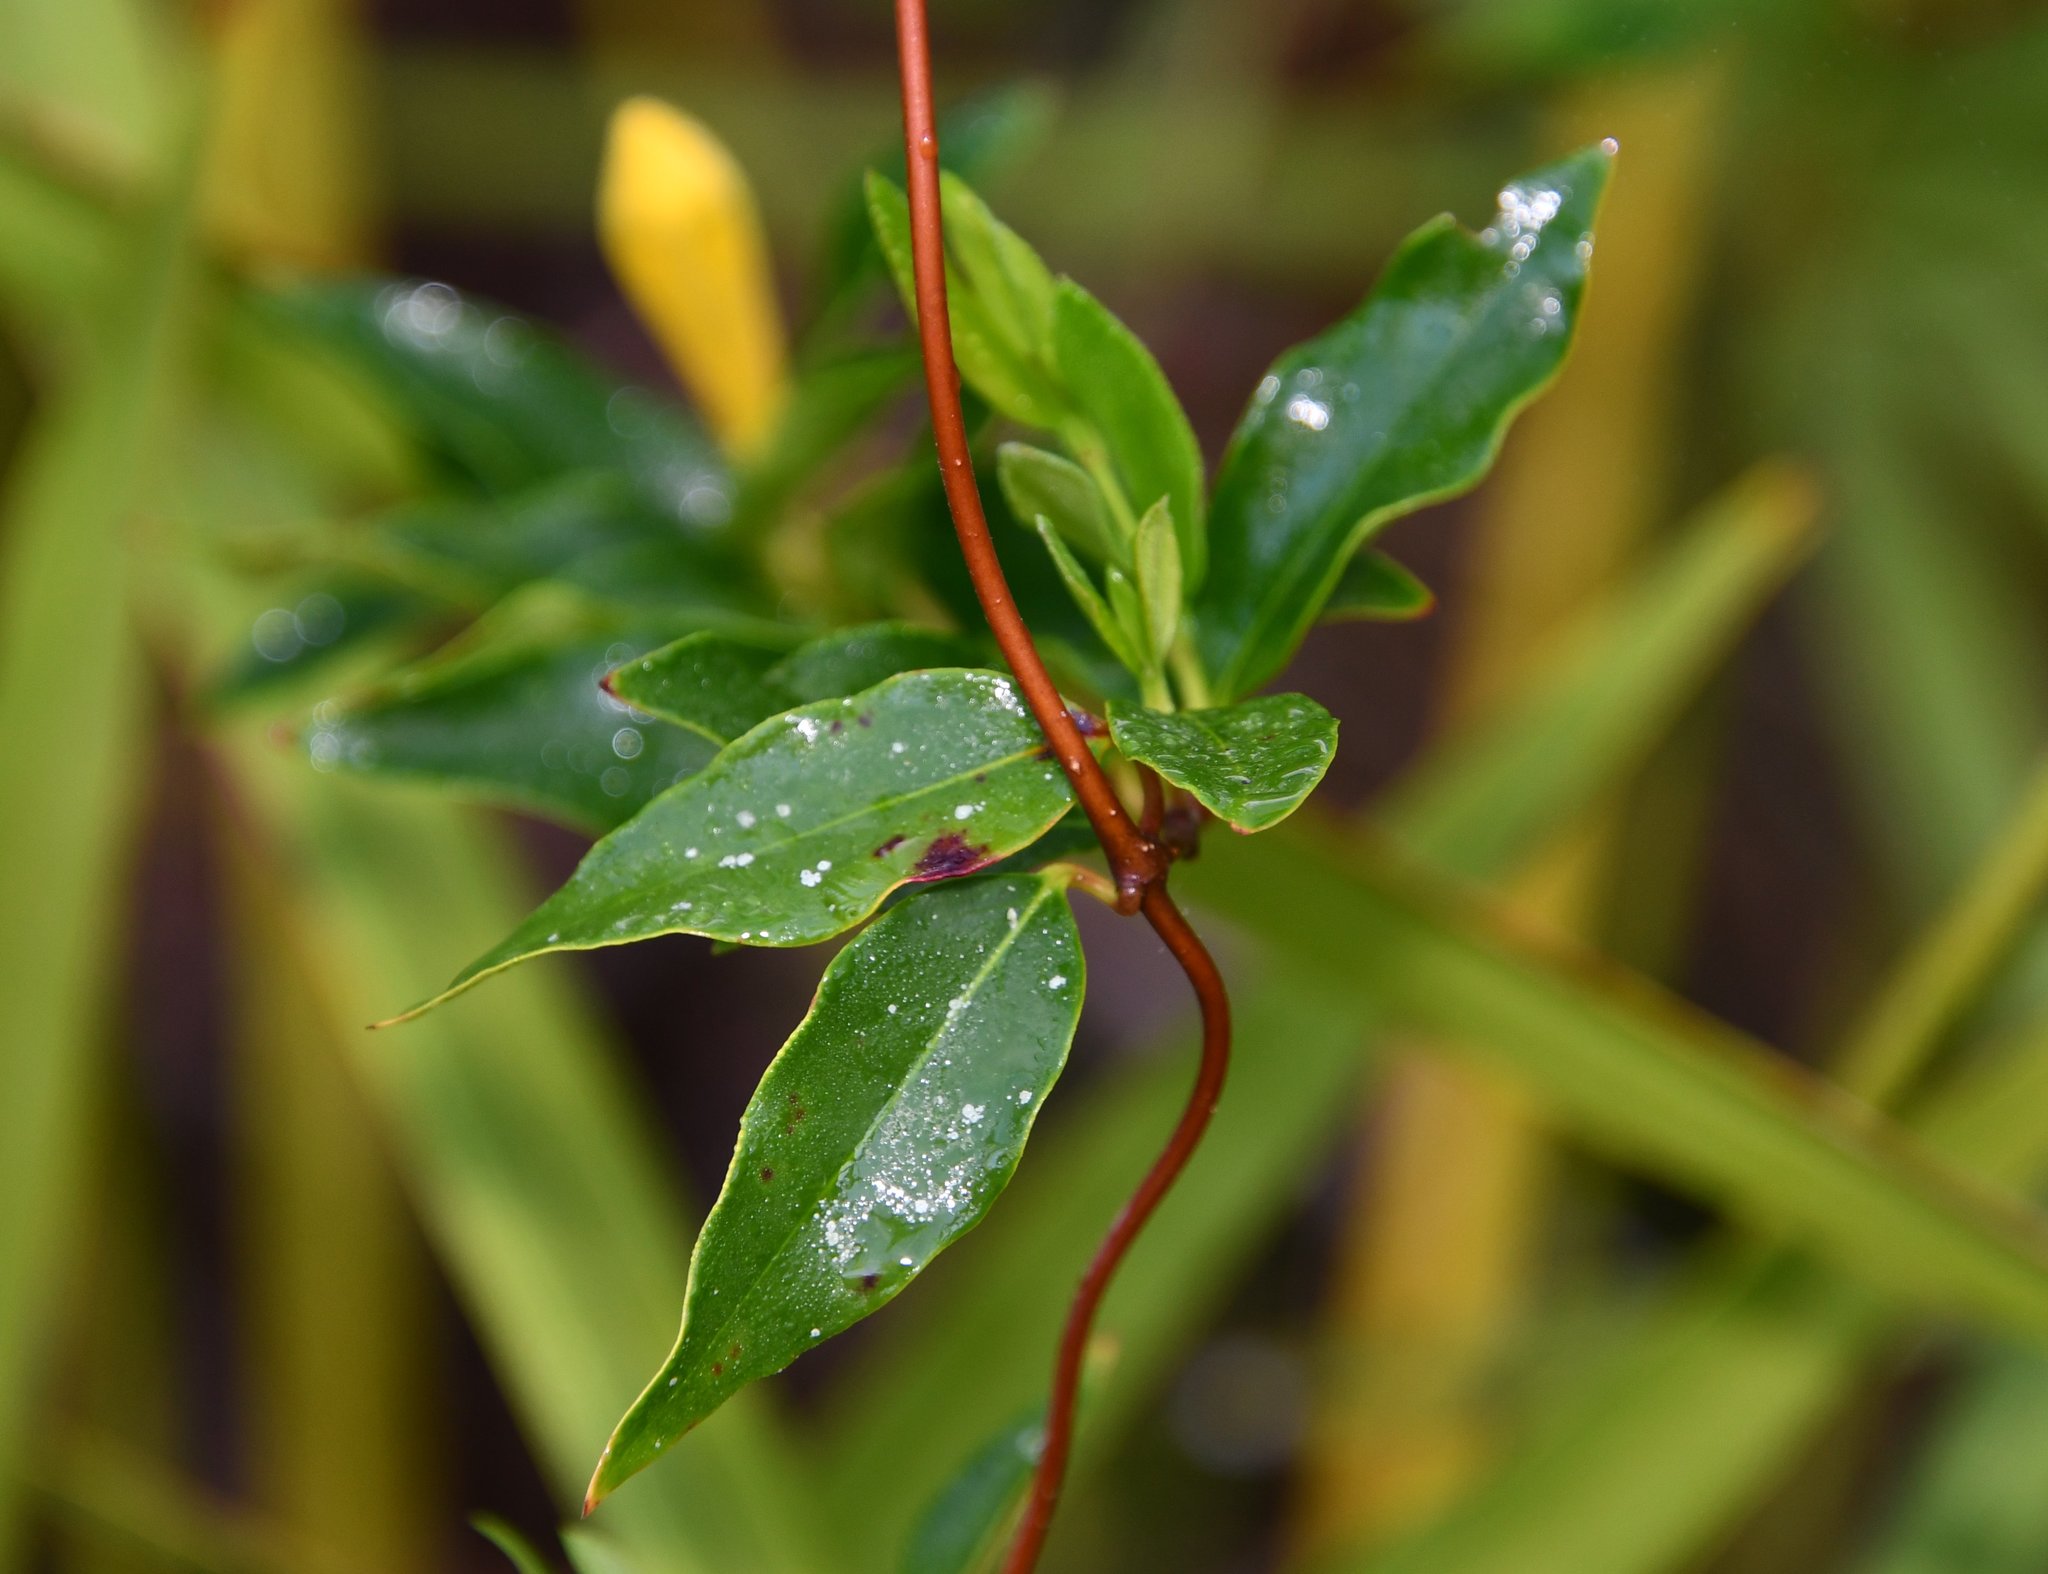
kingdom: Plantae
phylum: Tracheophyta
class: Magnoliopsida
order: Gentianales
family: Gelsemiaceae
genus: Gelsemium
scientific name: Gelsemium sempervirens
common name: Carolina-jasmine
